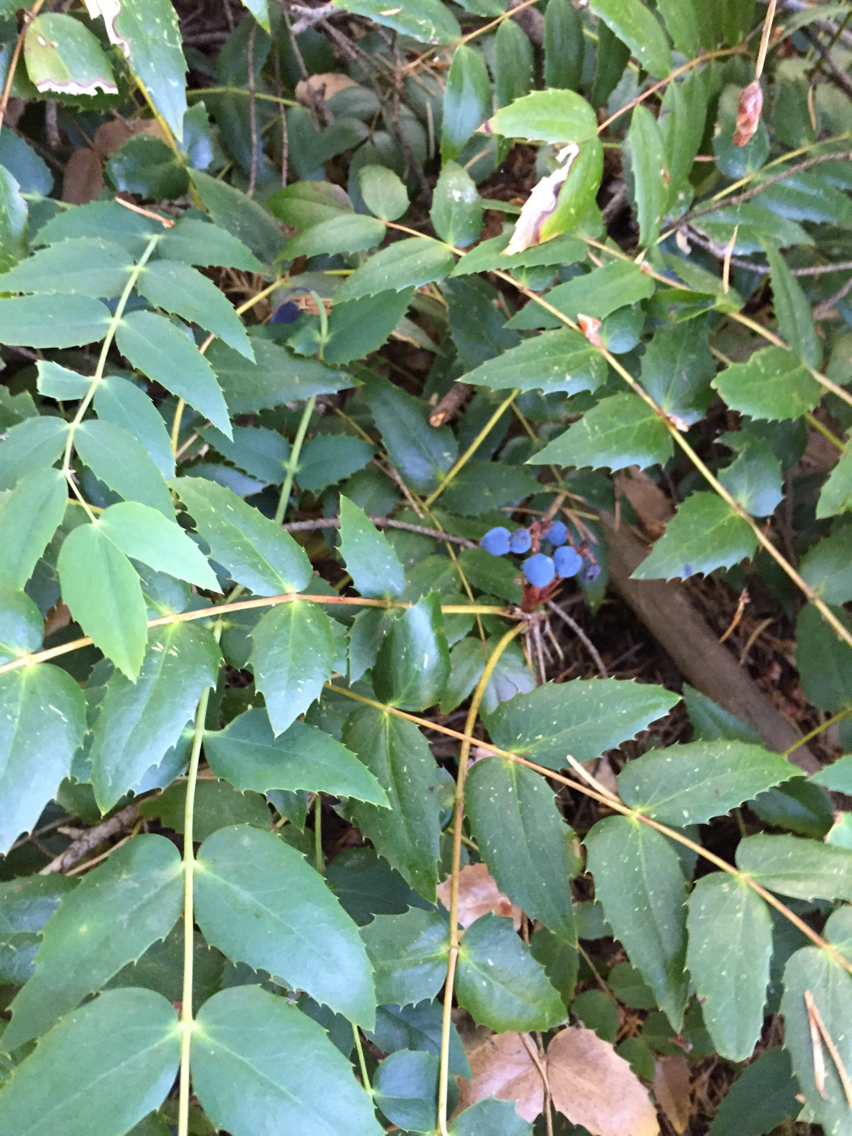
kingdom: Plantae
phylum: Tracheophyta
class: Magnoliopsida
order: Ranunculales
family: Berberidaceae
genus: Mahonia
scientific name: Mahonia nervosa
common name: Cascade oregon-grape
